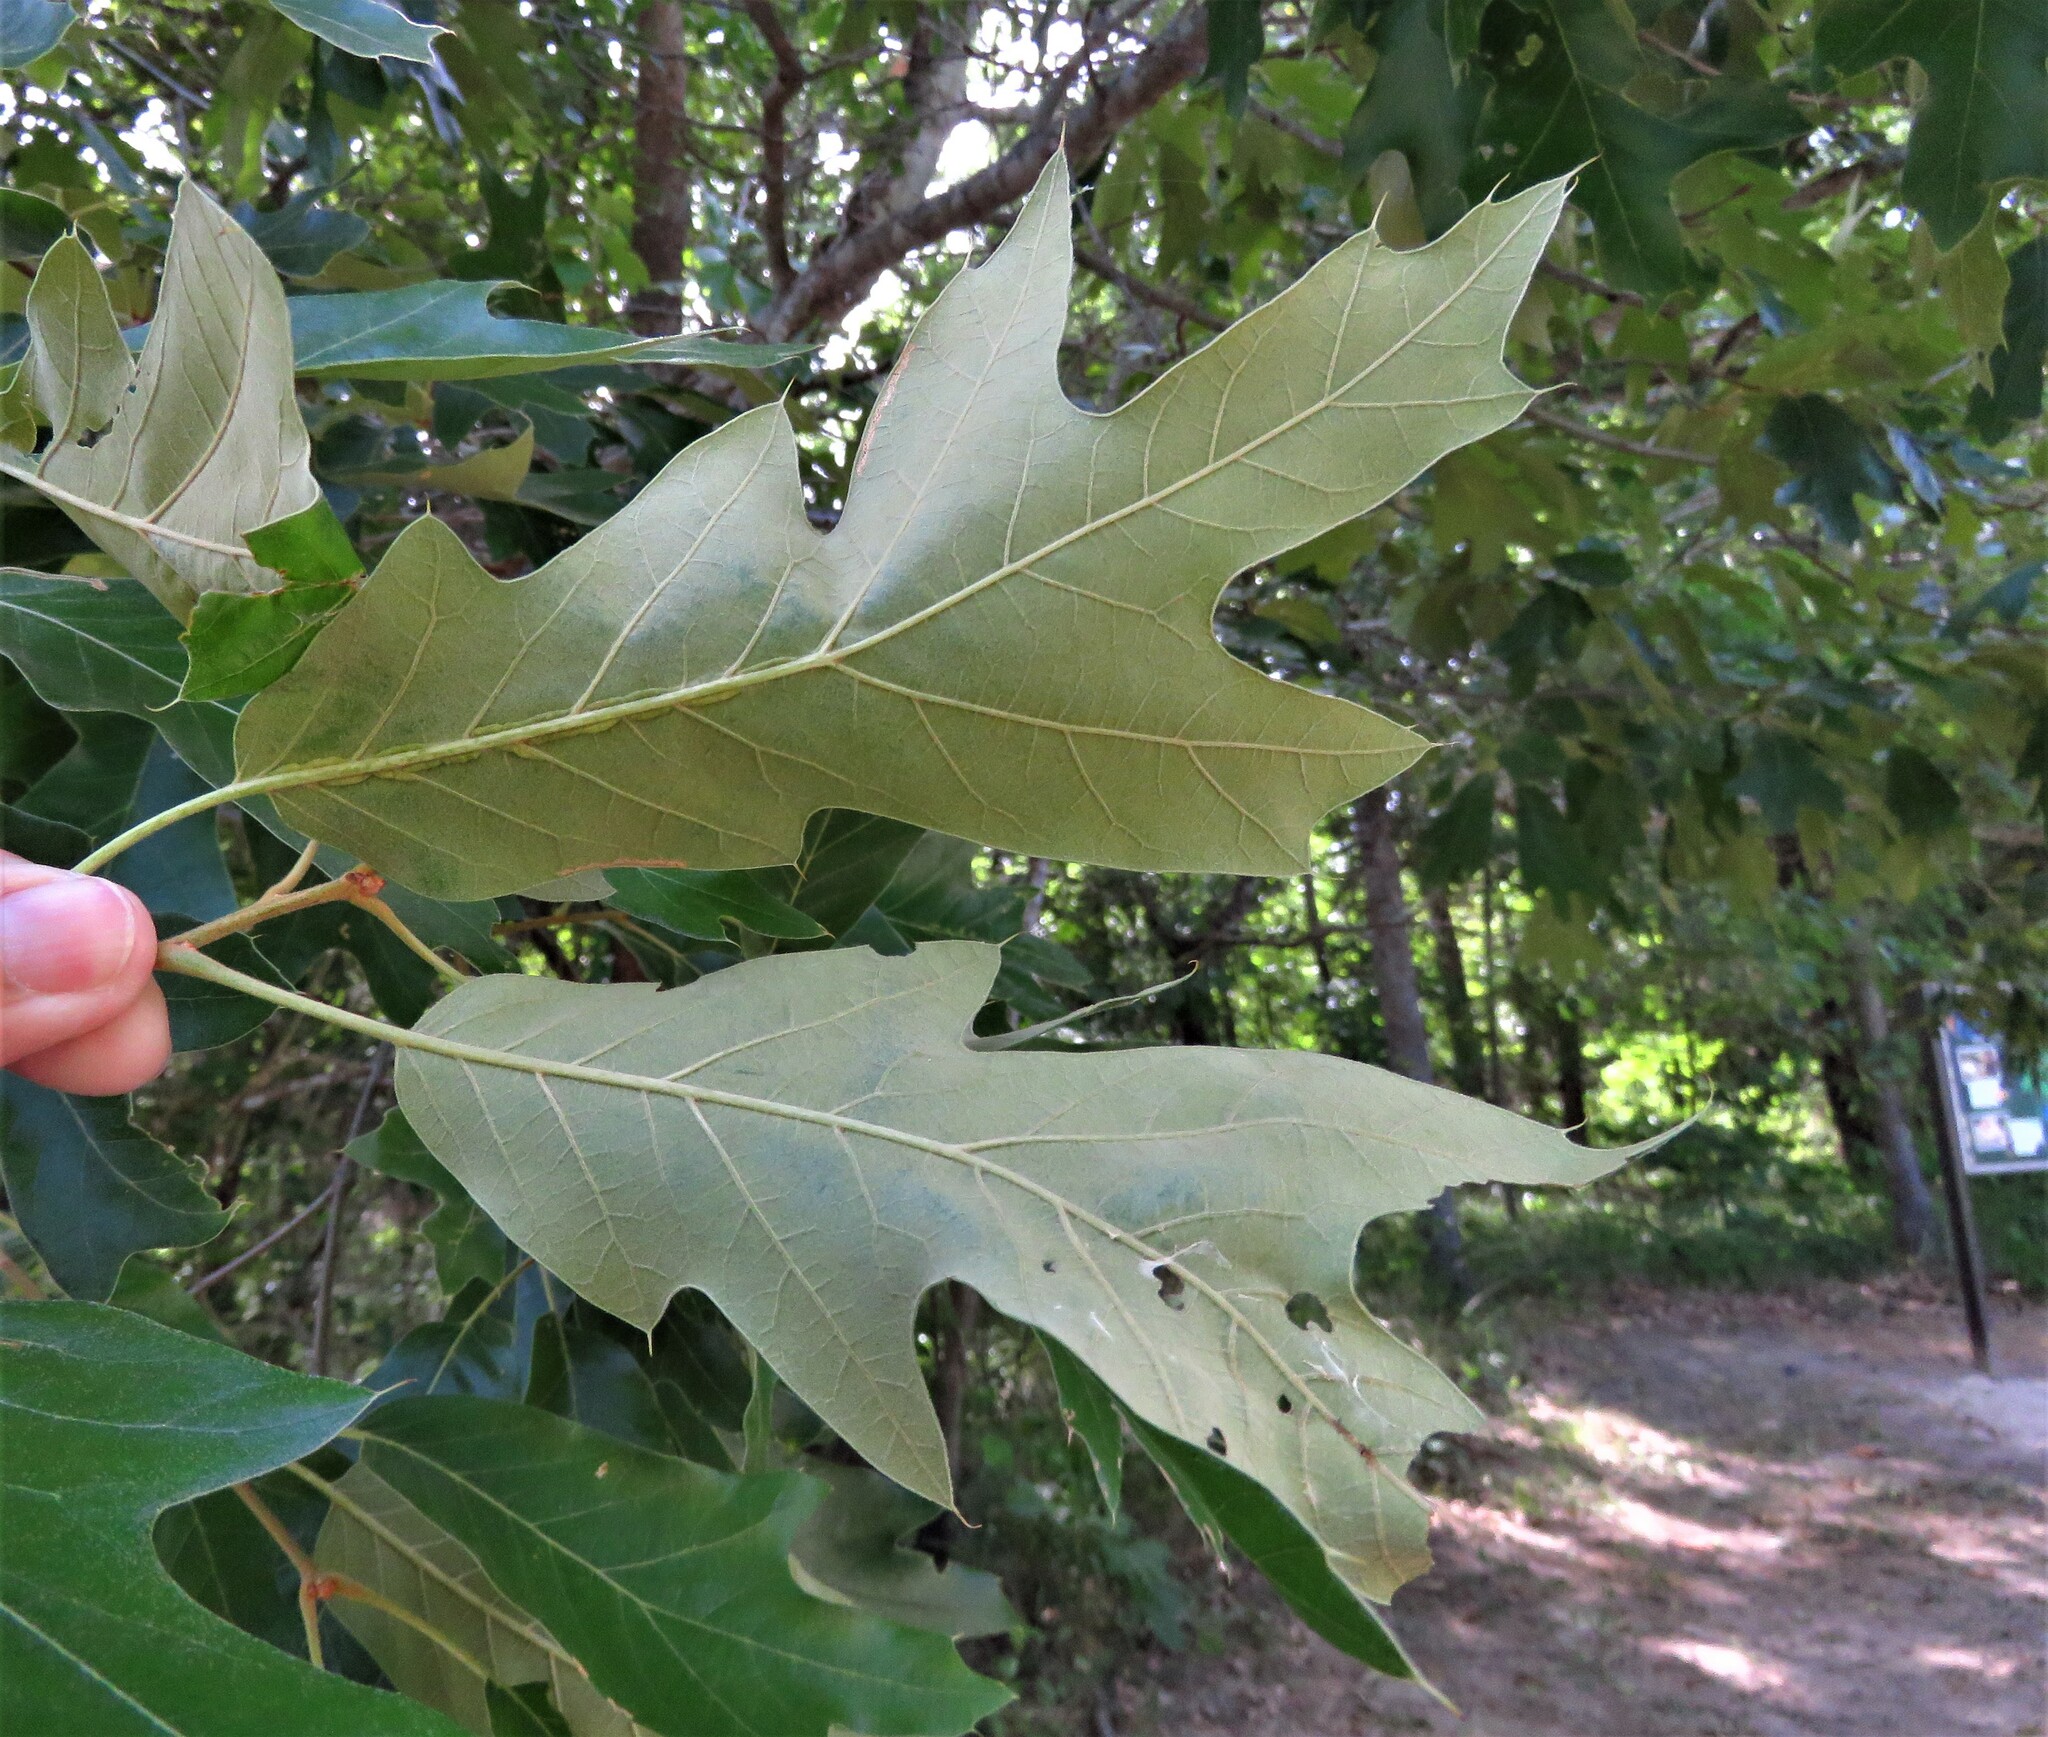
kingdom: Plantae
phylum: Tracheophyta
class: Magnoliopsida
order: Fagales
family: Fagaceae
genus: Quercus
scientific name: Quercus falcata
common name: Southern red oak
